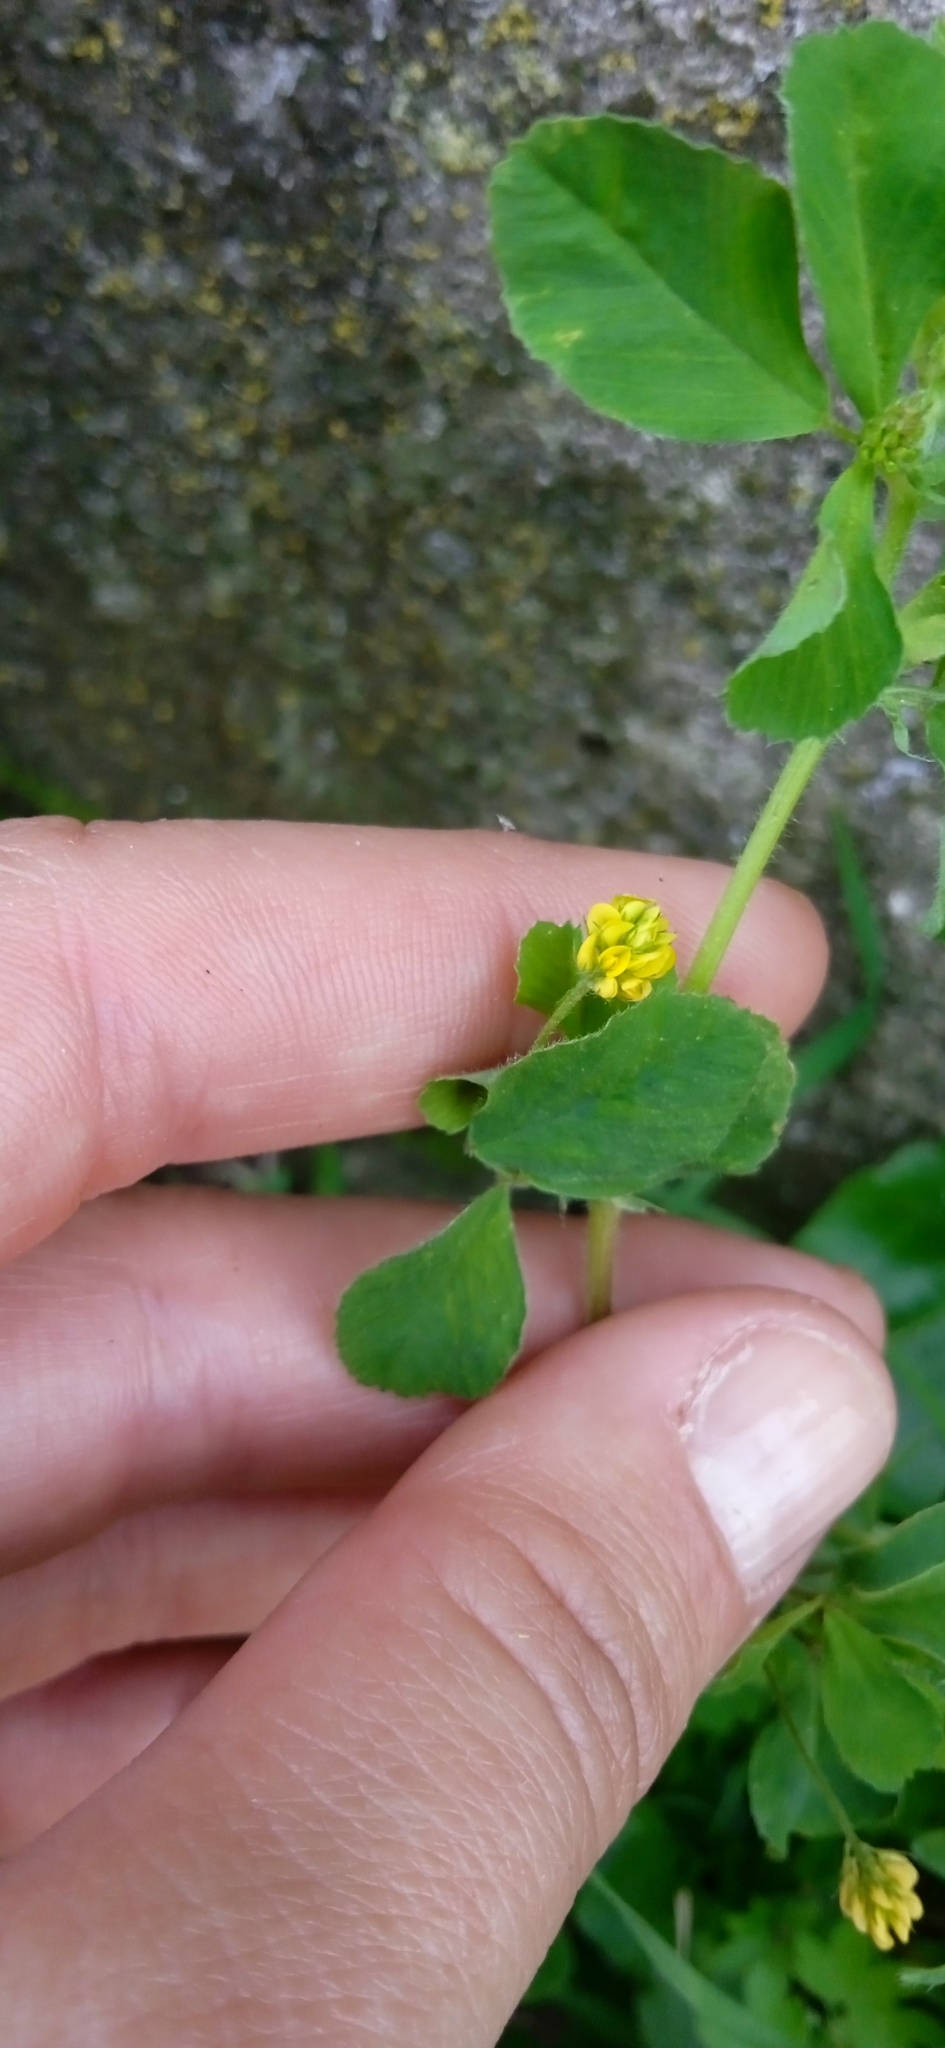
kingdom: Plantae
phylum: Tracheophyta
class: Magnoliopsida
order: Fabales
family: Fabaceae
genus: Medicago
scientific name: Medicago lupulina
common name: Black medick
